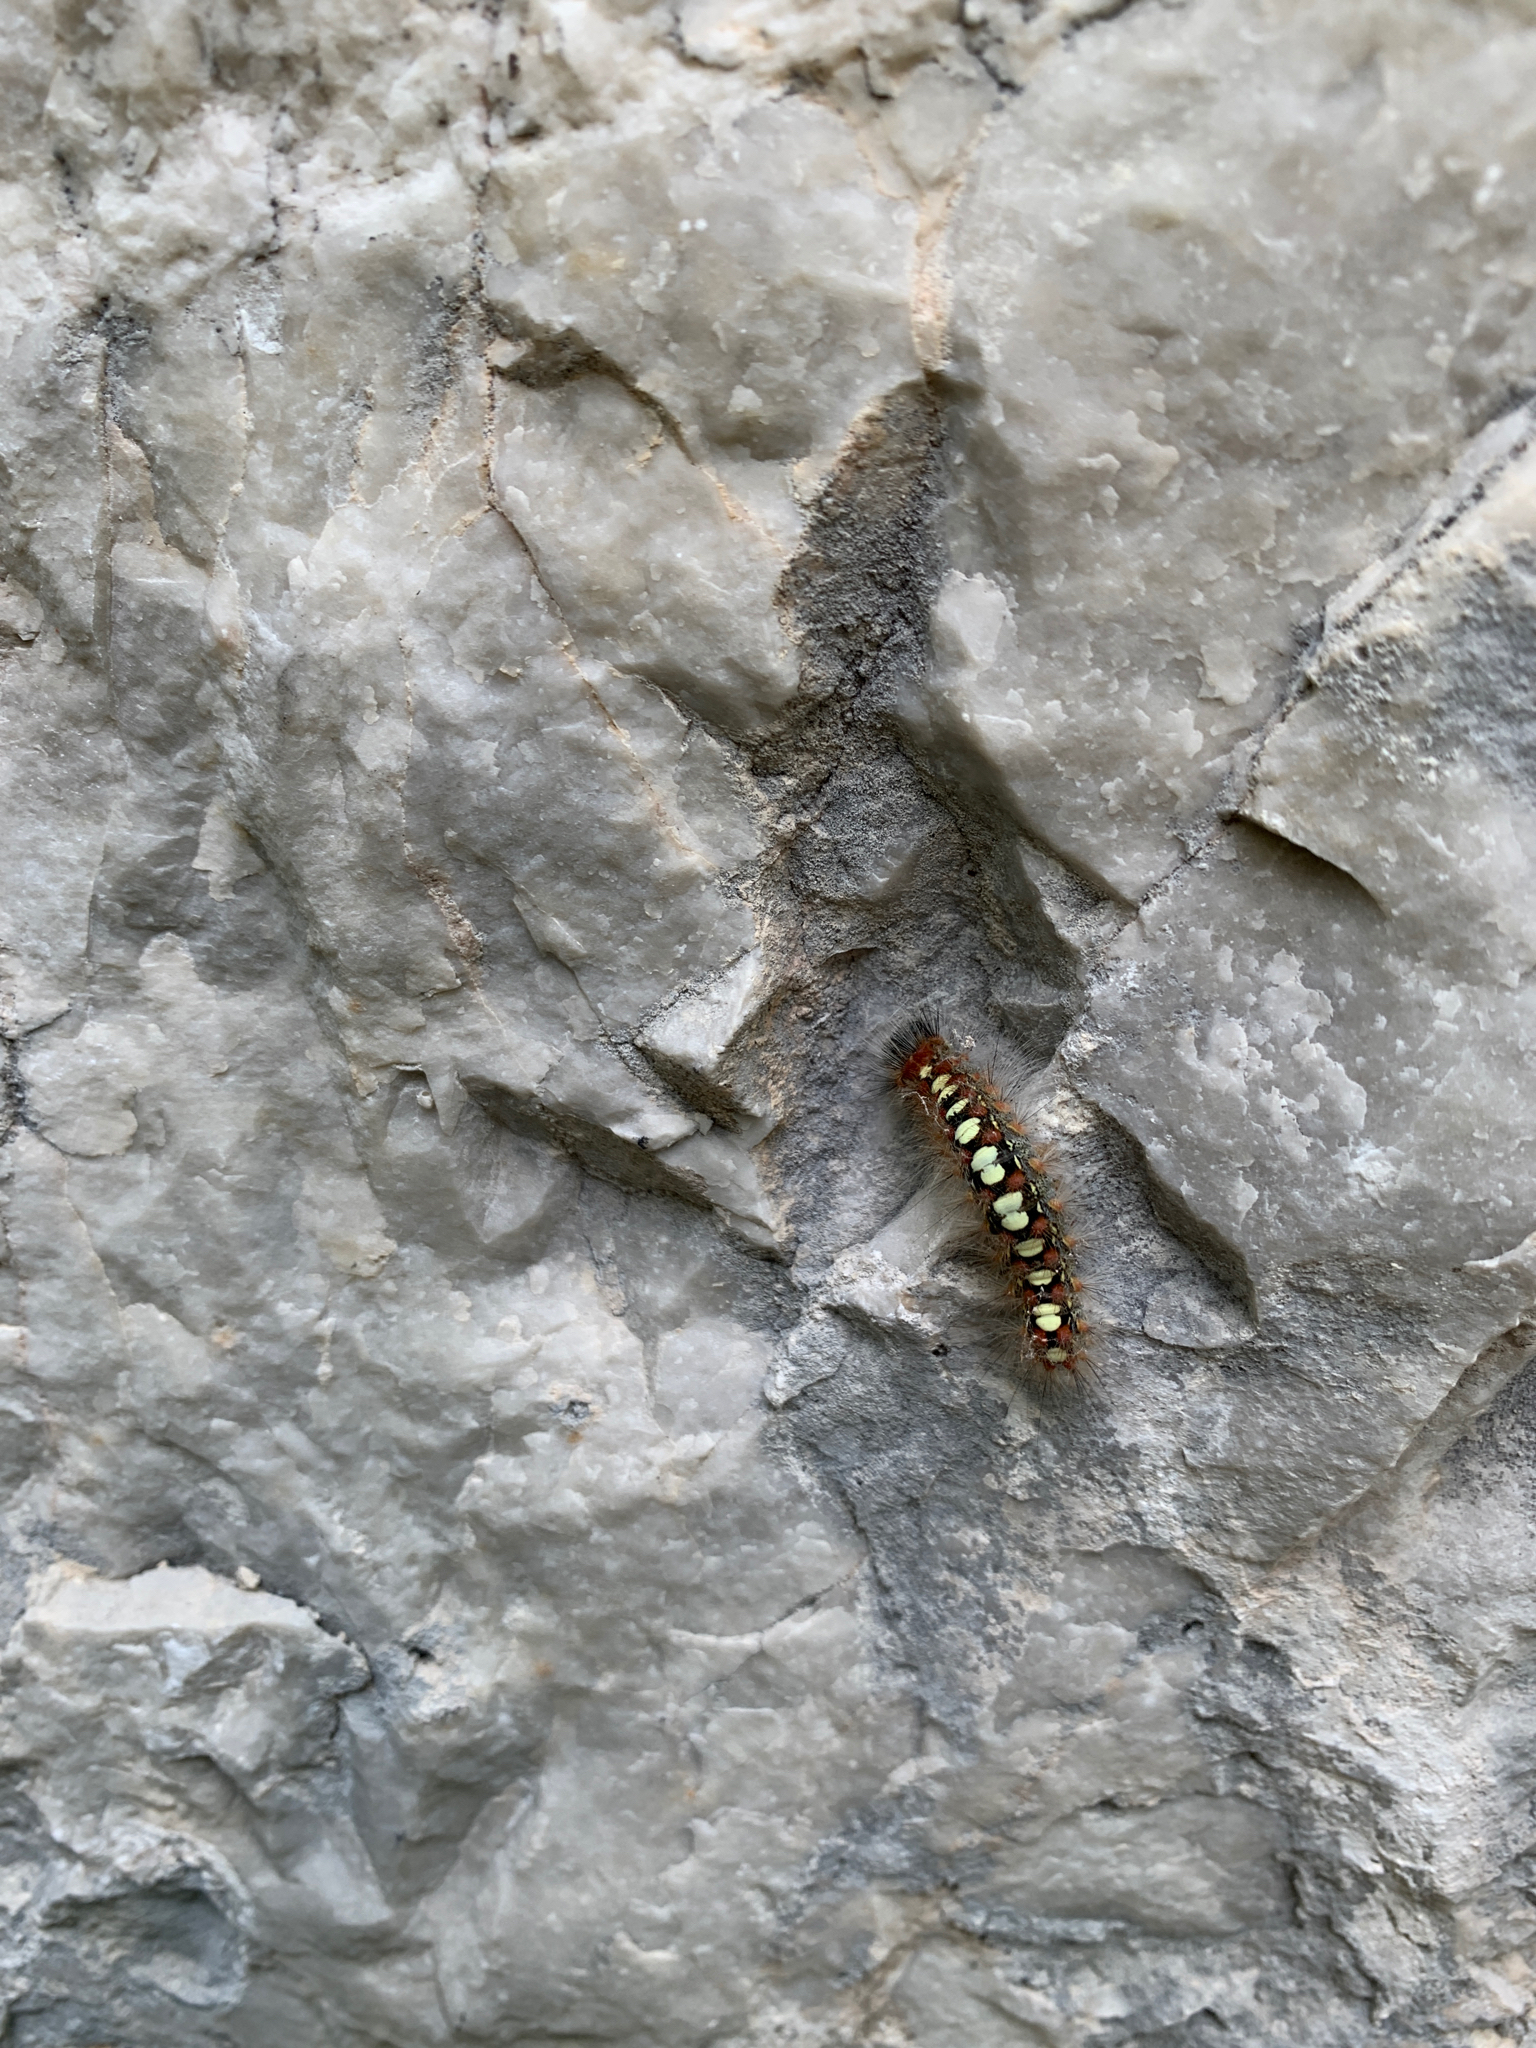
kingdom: Animalia
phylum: Arthropoda
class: Insecta
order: Lepidoptera
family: Erebidae
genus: Leucoma
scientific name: Leucoma salicis
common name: White satin moth
